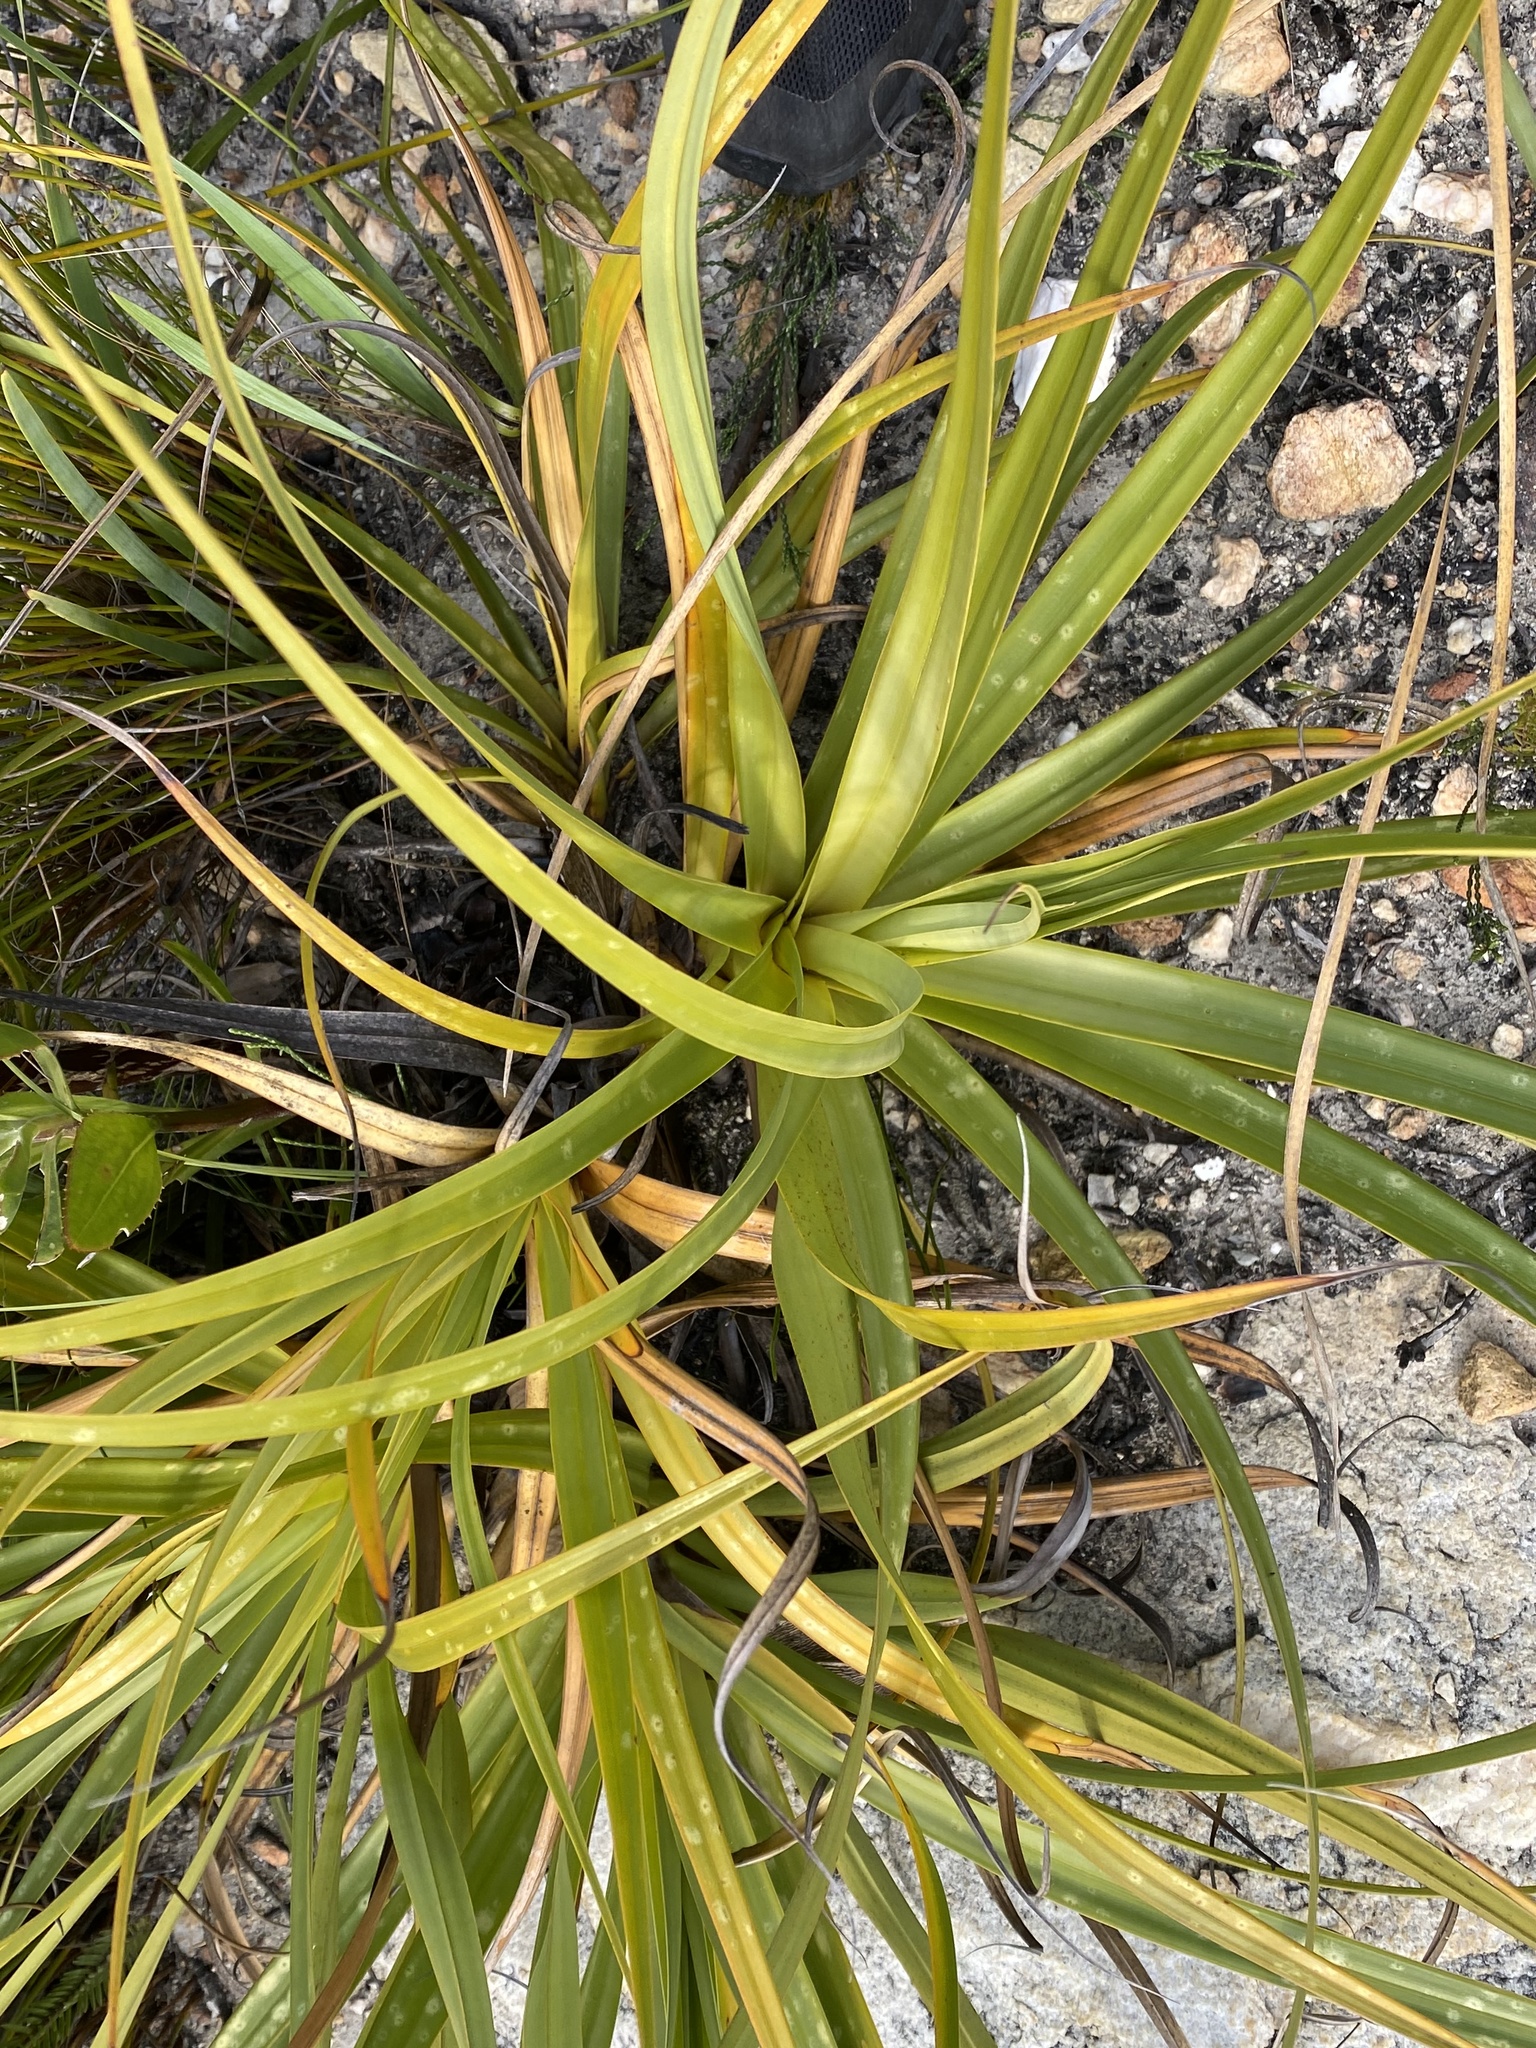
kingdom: Plantae
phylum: Tracheophyta
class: Liliopsida
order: Poales
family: Cyperaceae
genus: Tetraria
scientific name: Tetraria thermalis
